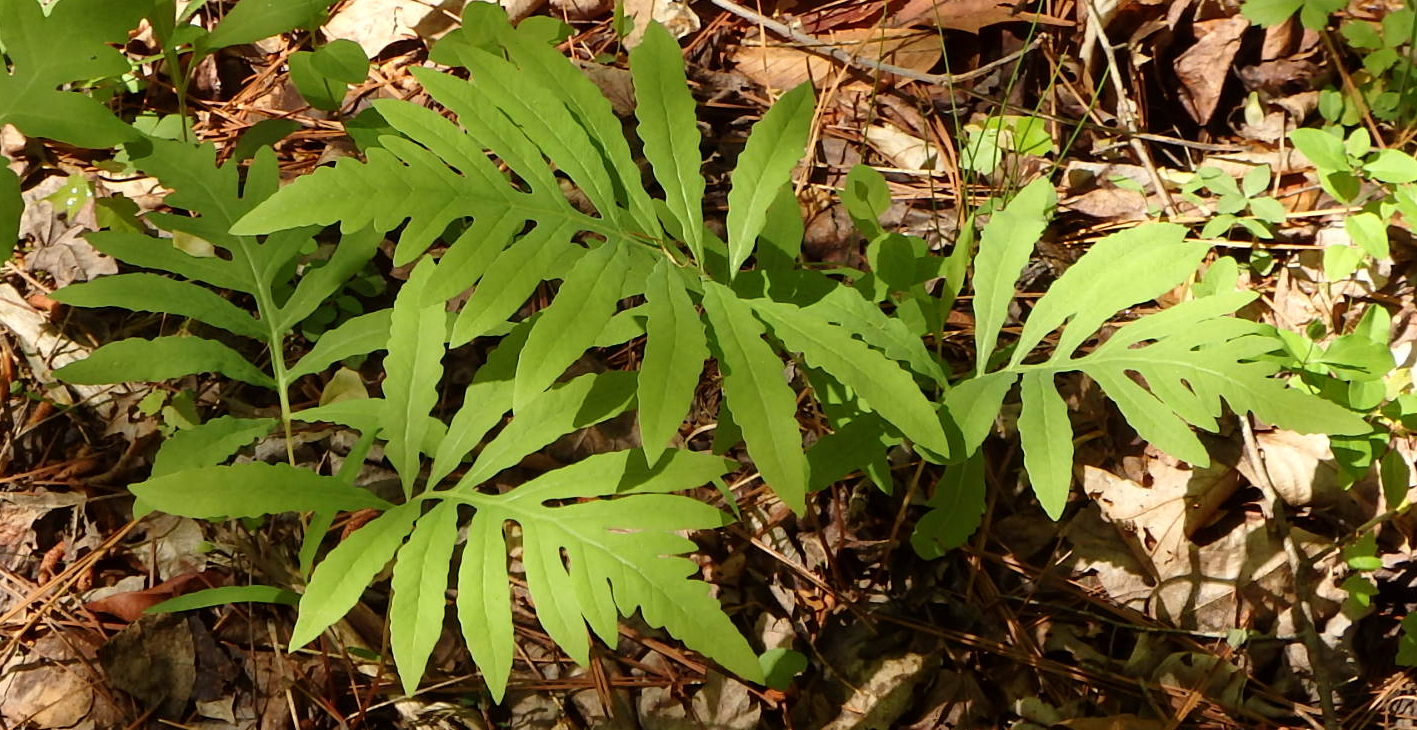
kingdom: Plantae
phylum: Tracheophyta
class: Polypodiopsida
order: Polypodiales
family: Onocleaceae
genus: Onoclea
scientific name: Onoclea sensibilis
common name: Sensitive fern
